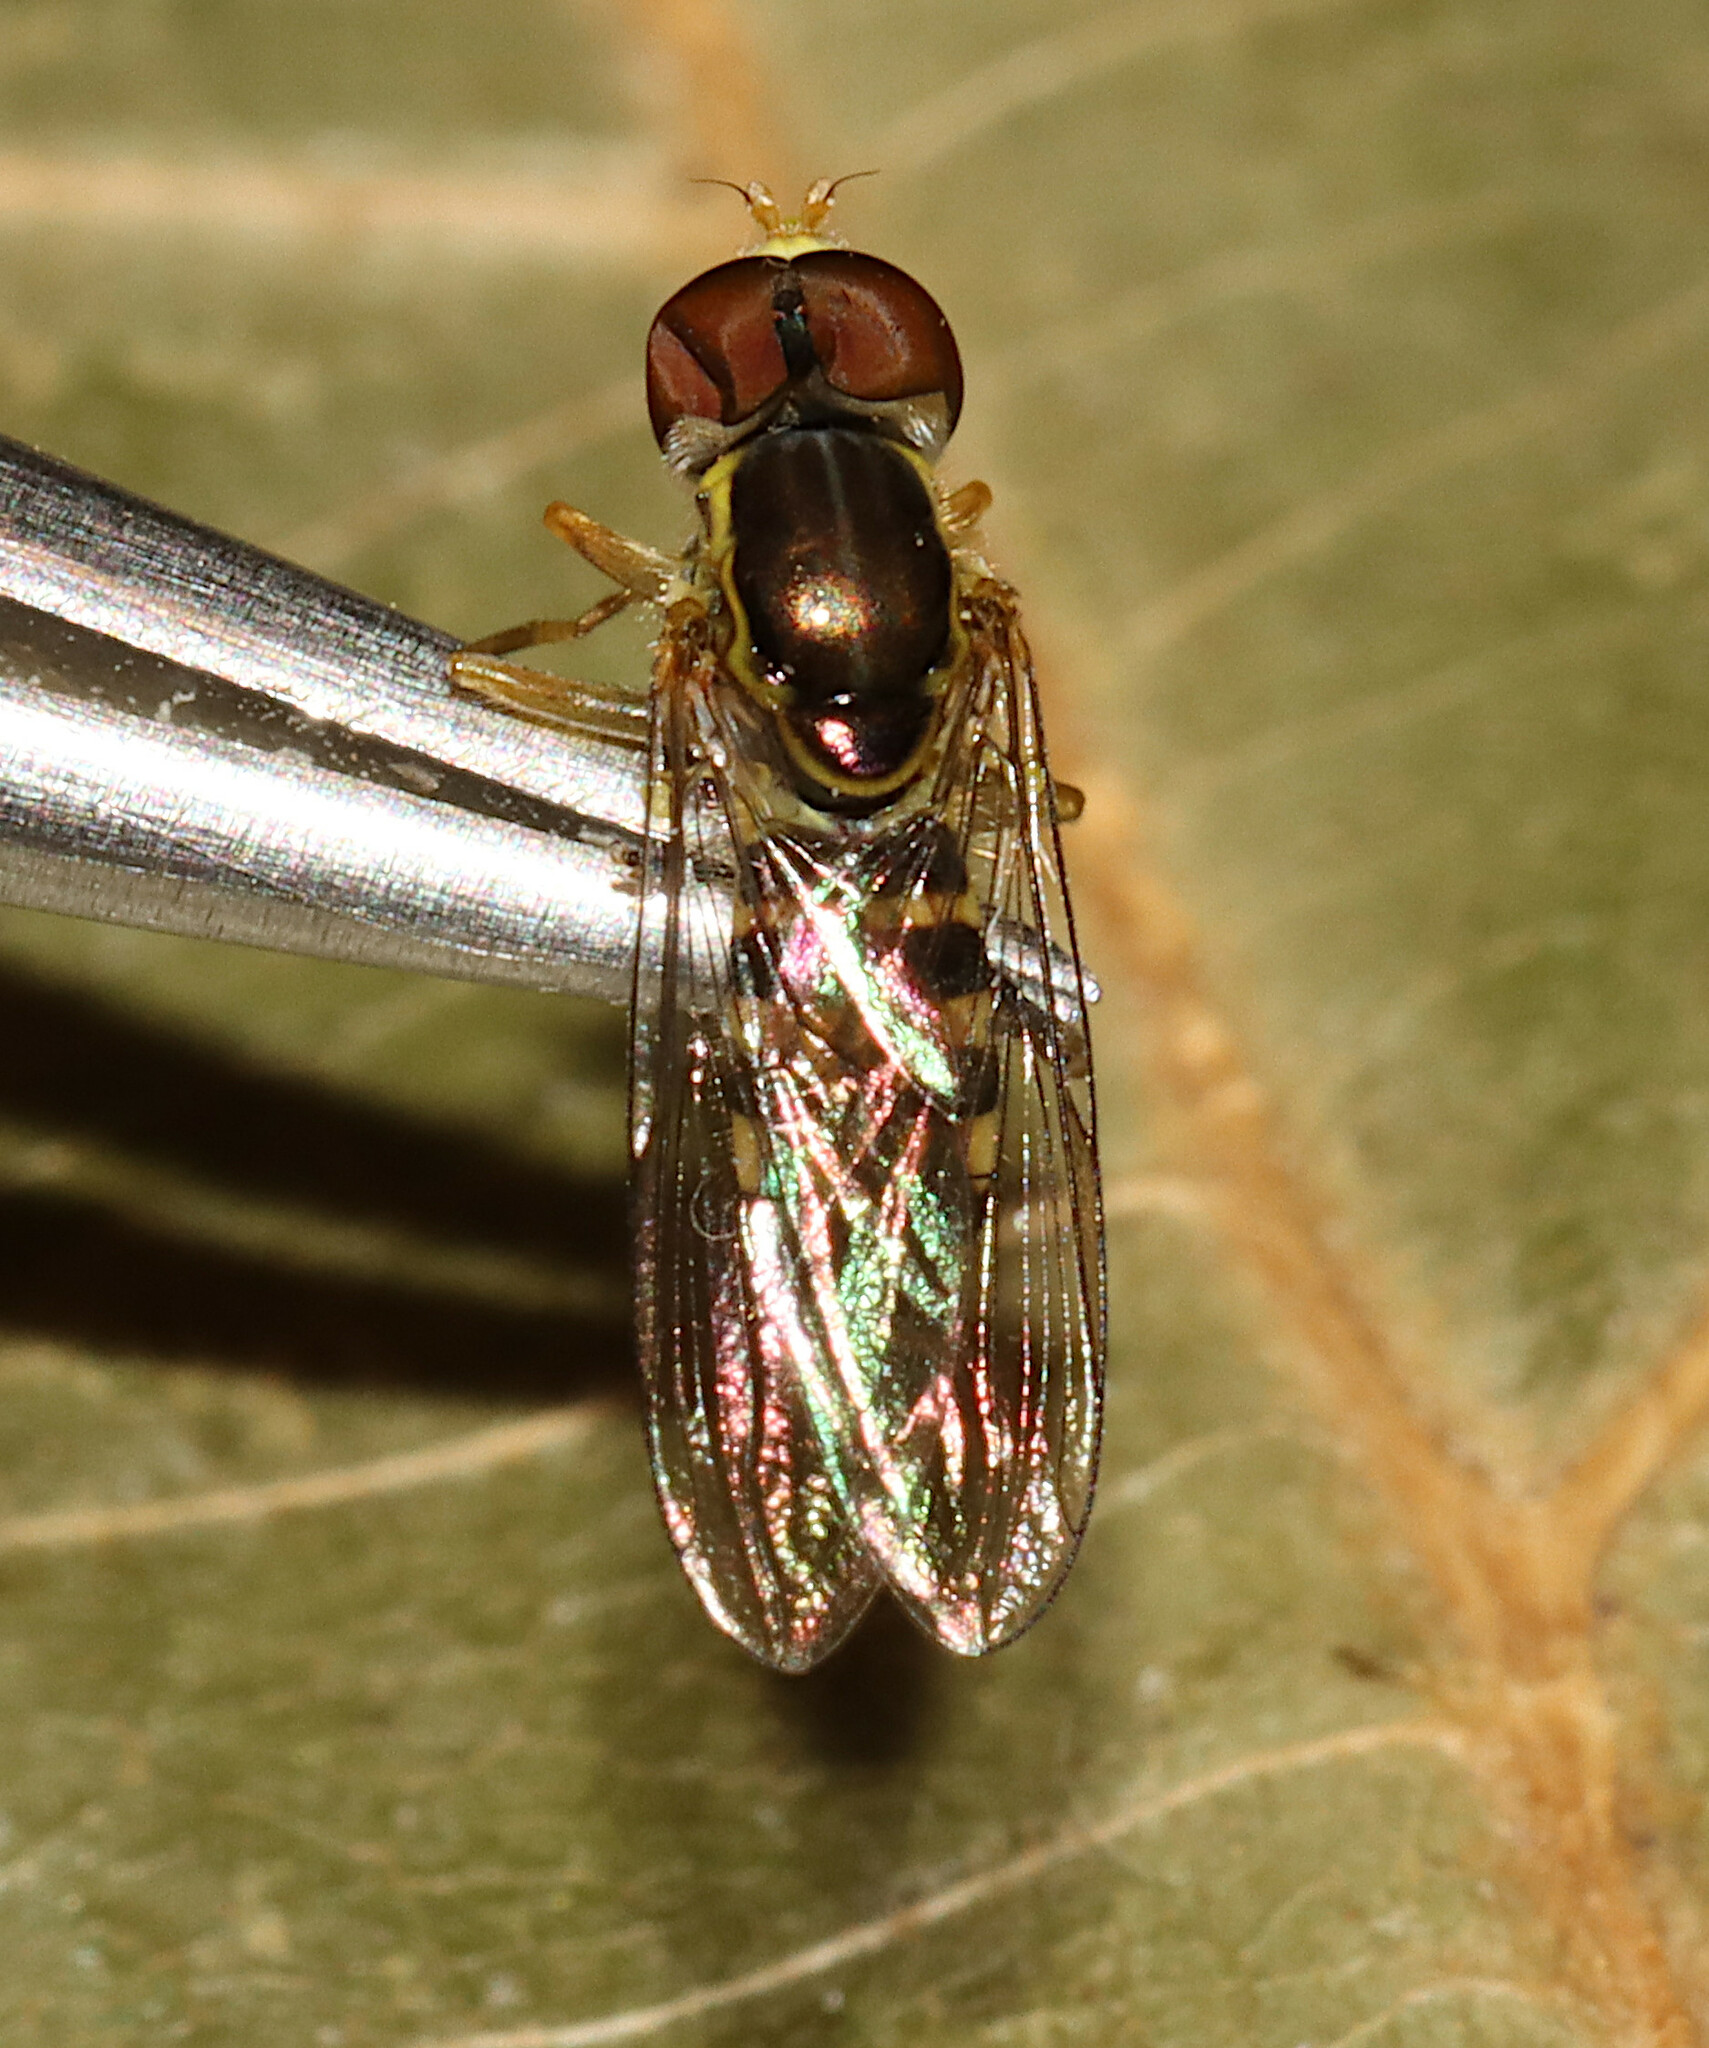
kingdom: Animalia
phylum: Arthropoda
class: Insecta
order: Diptera
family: Syrphidae
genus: Toxomerus
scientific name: Toxomerus geminatus
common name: Eastern calligrapher
